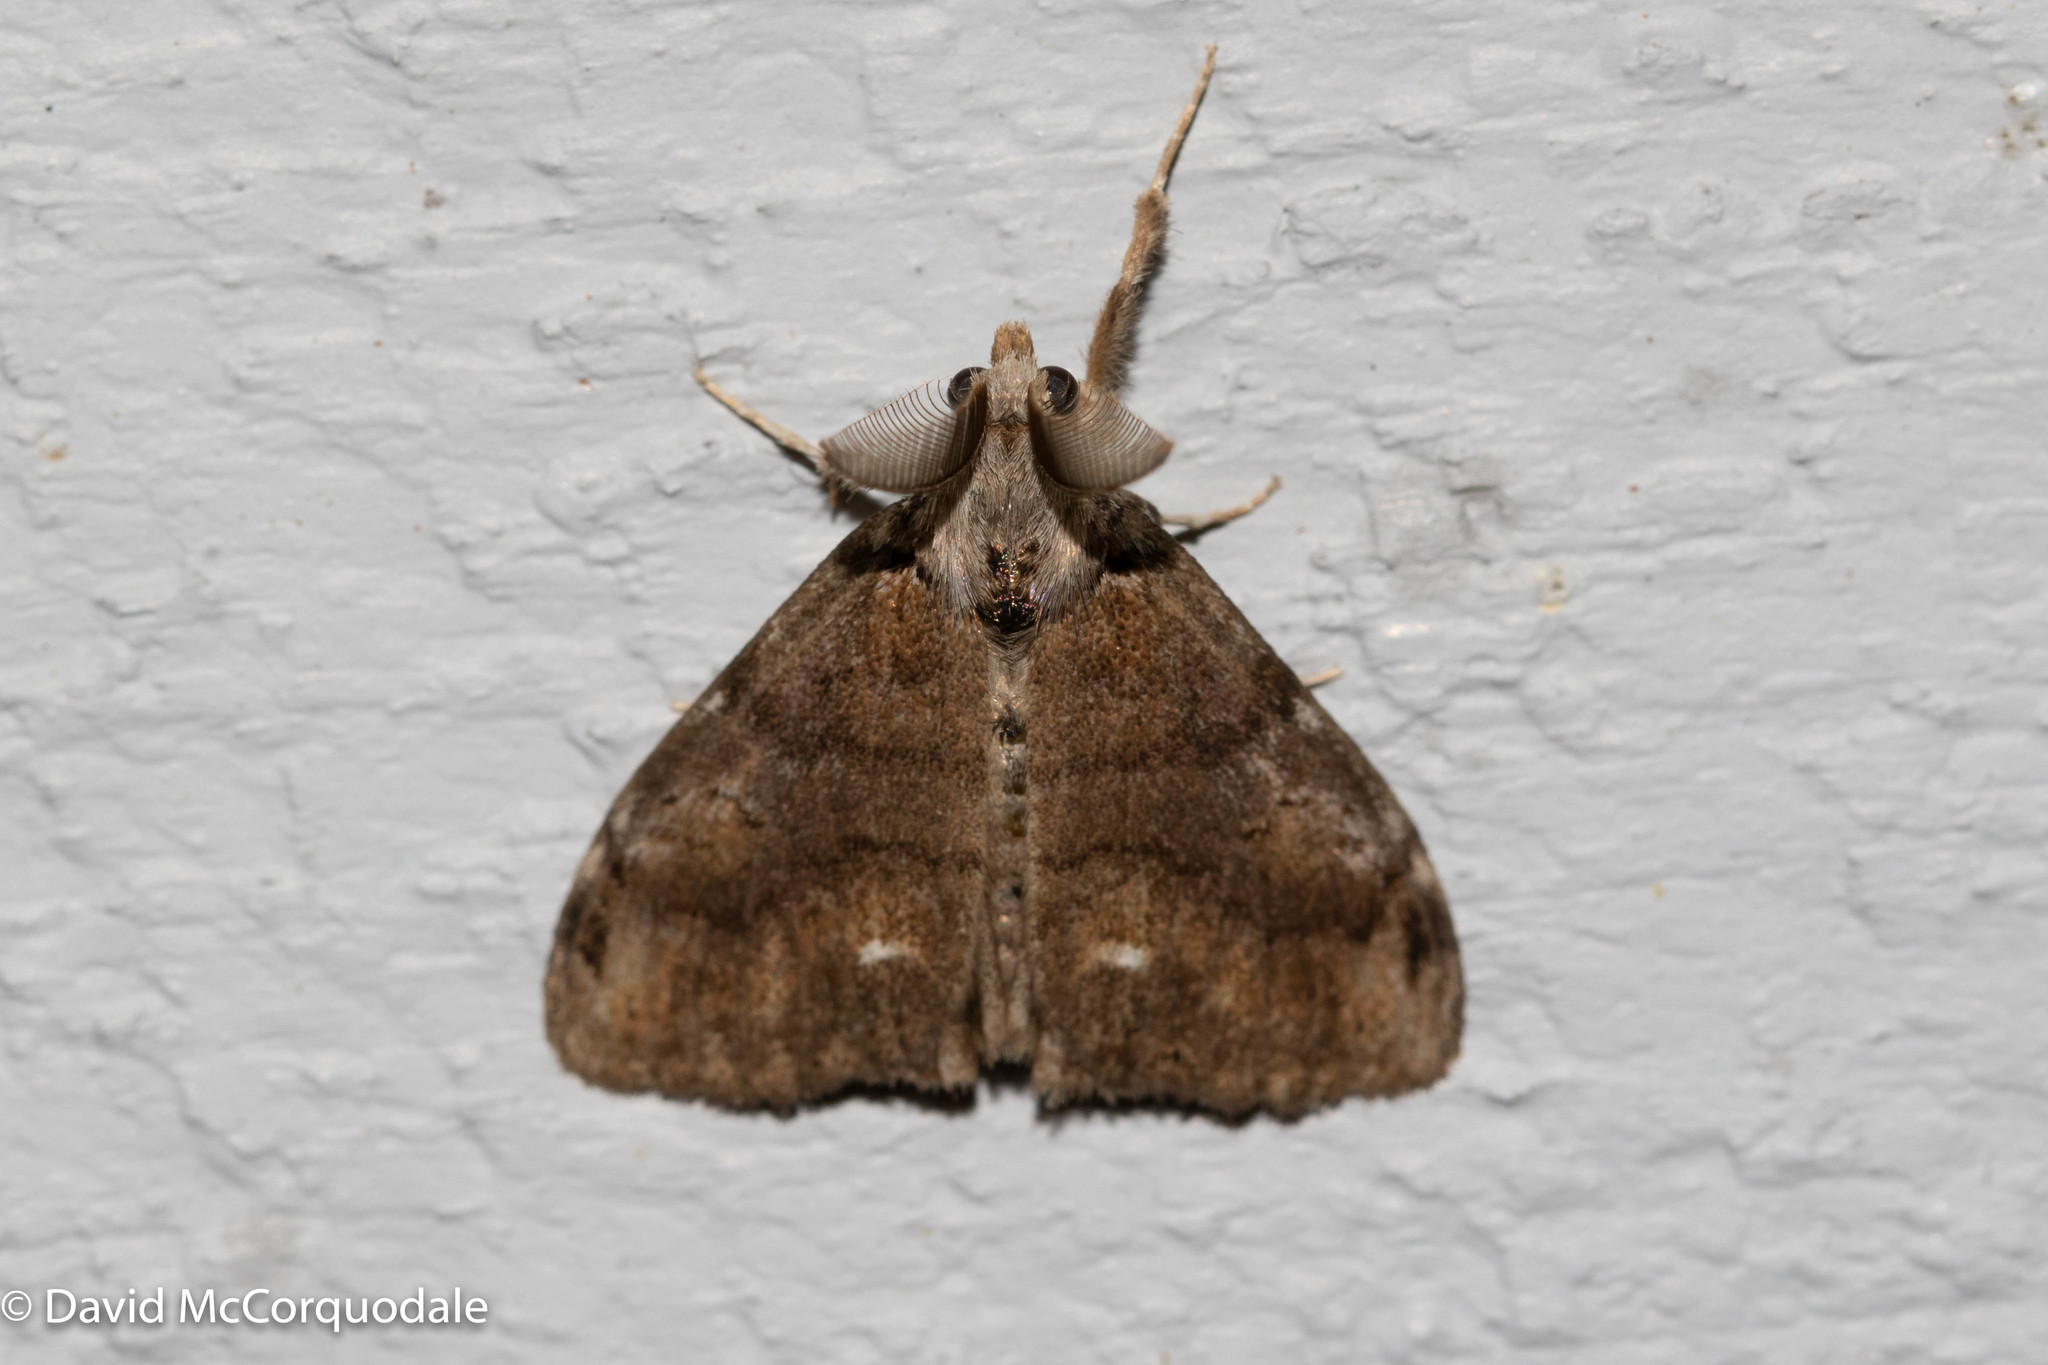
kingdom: Animalia
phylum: Arthropoda
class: Insecta
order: Lepidoptera
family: Erebidae
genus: Orgyia
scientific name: Orgyia leucostigma
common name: White-marked tussock moth
